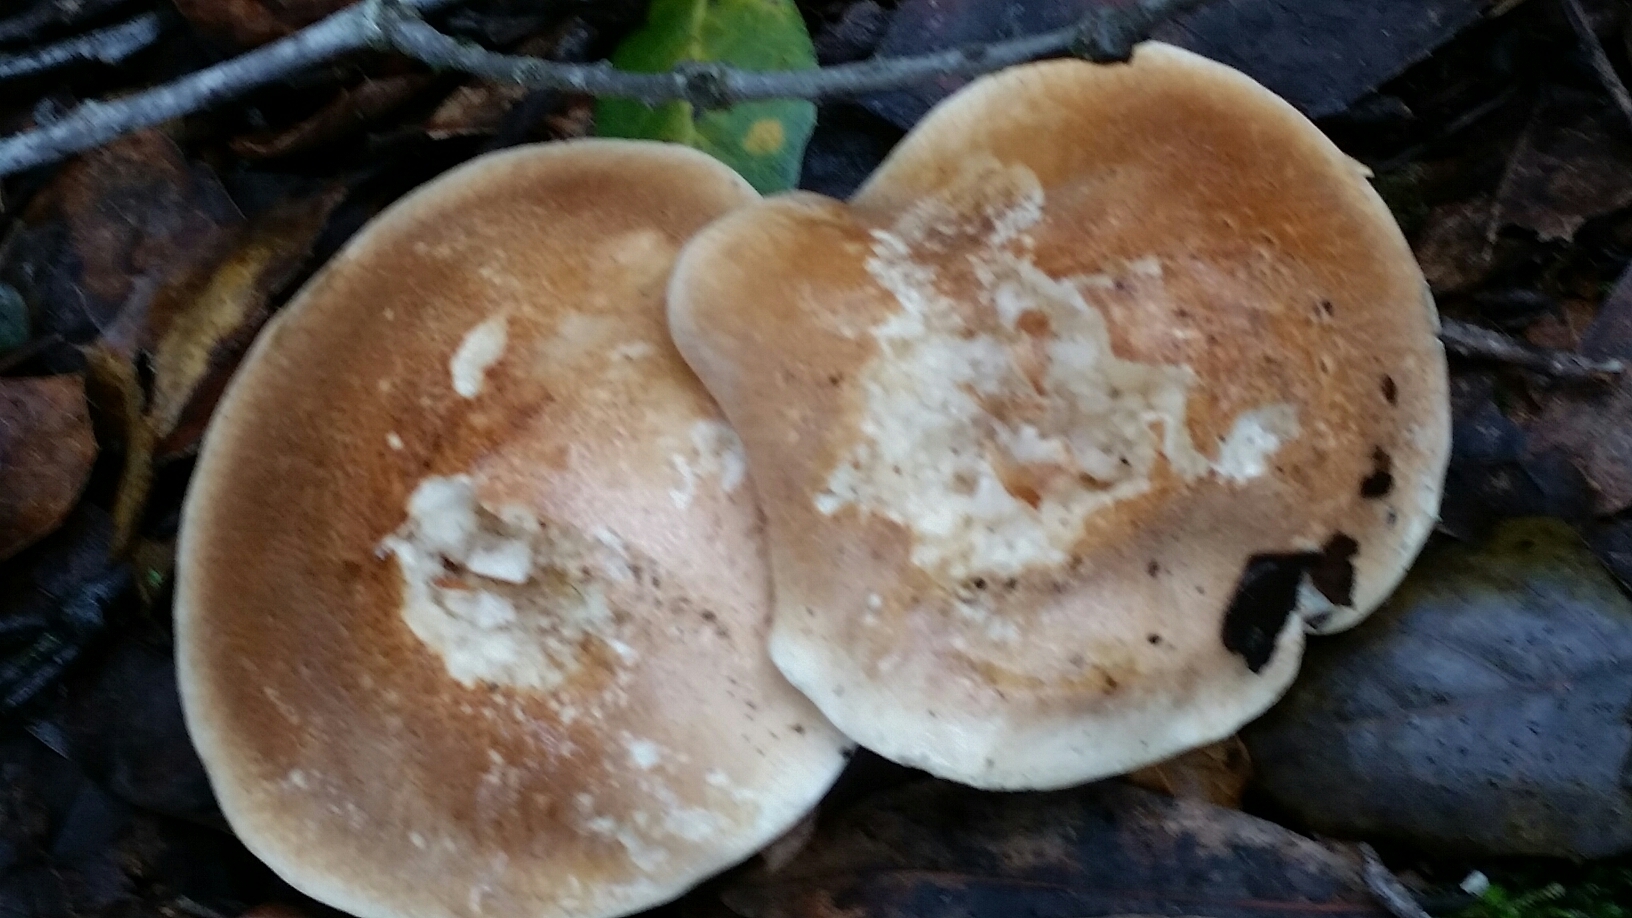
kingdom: Fungi
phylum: Basidiomycota
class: Agaricomycetes
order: Agaricales
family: Tricholomataceae
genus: Leucopaxillus
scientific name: Leucopaxillus gentianeus
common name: Bitter funnel
